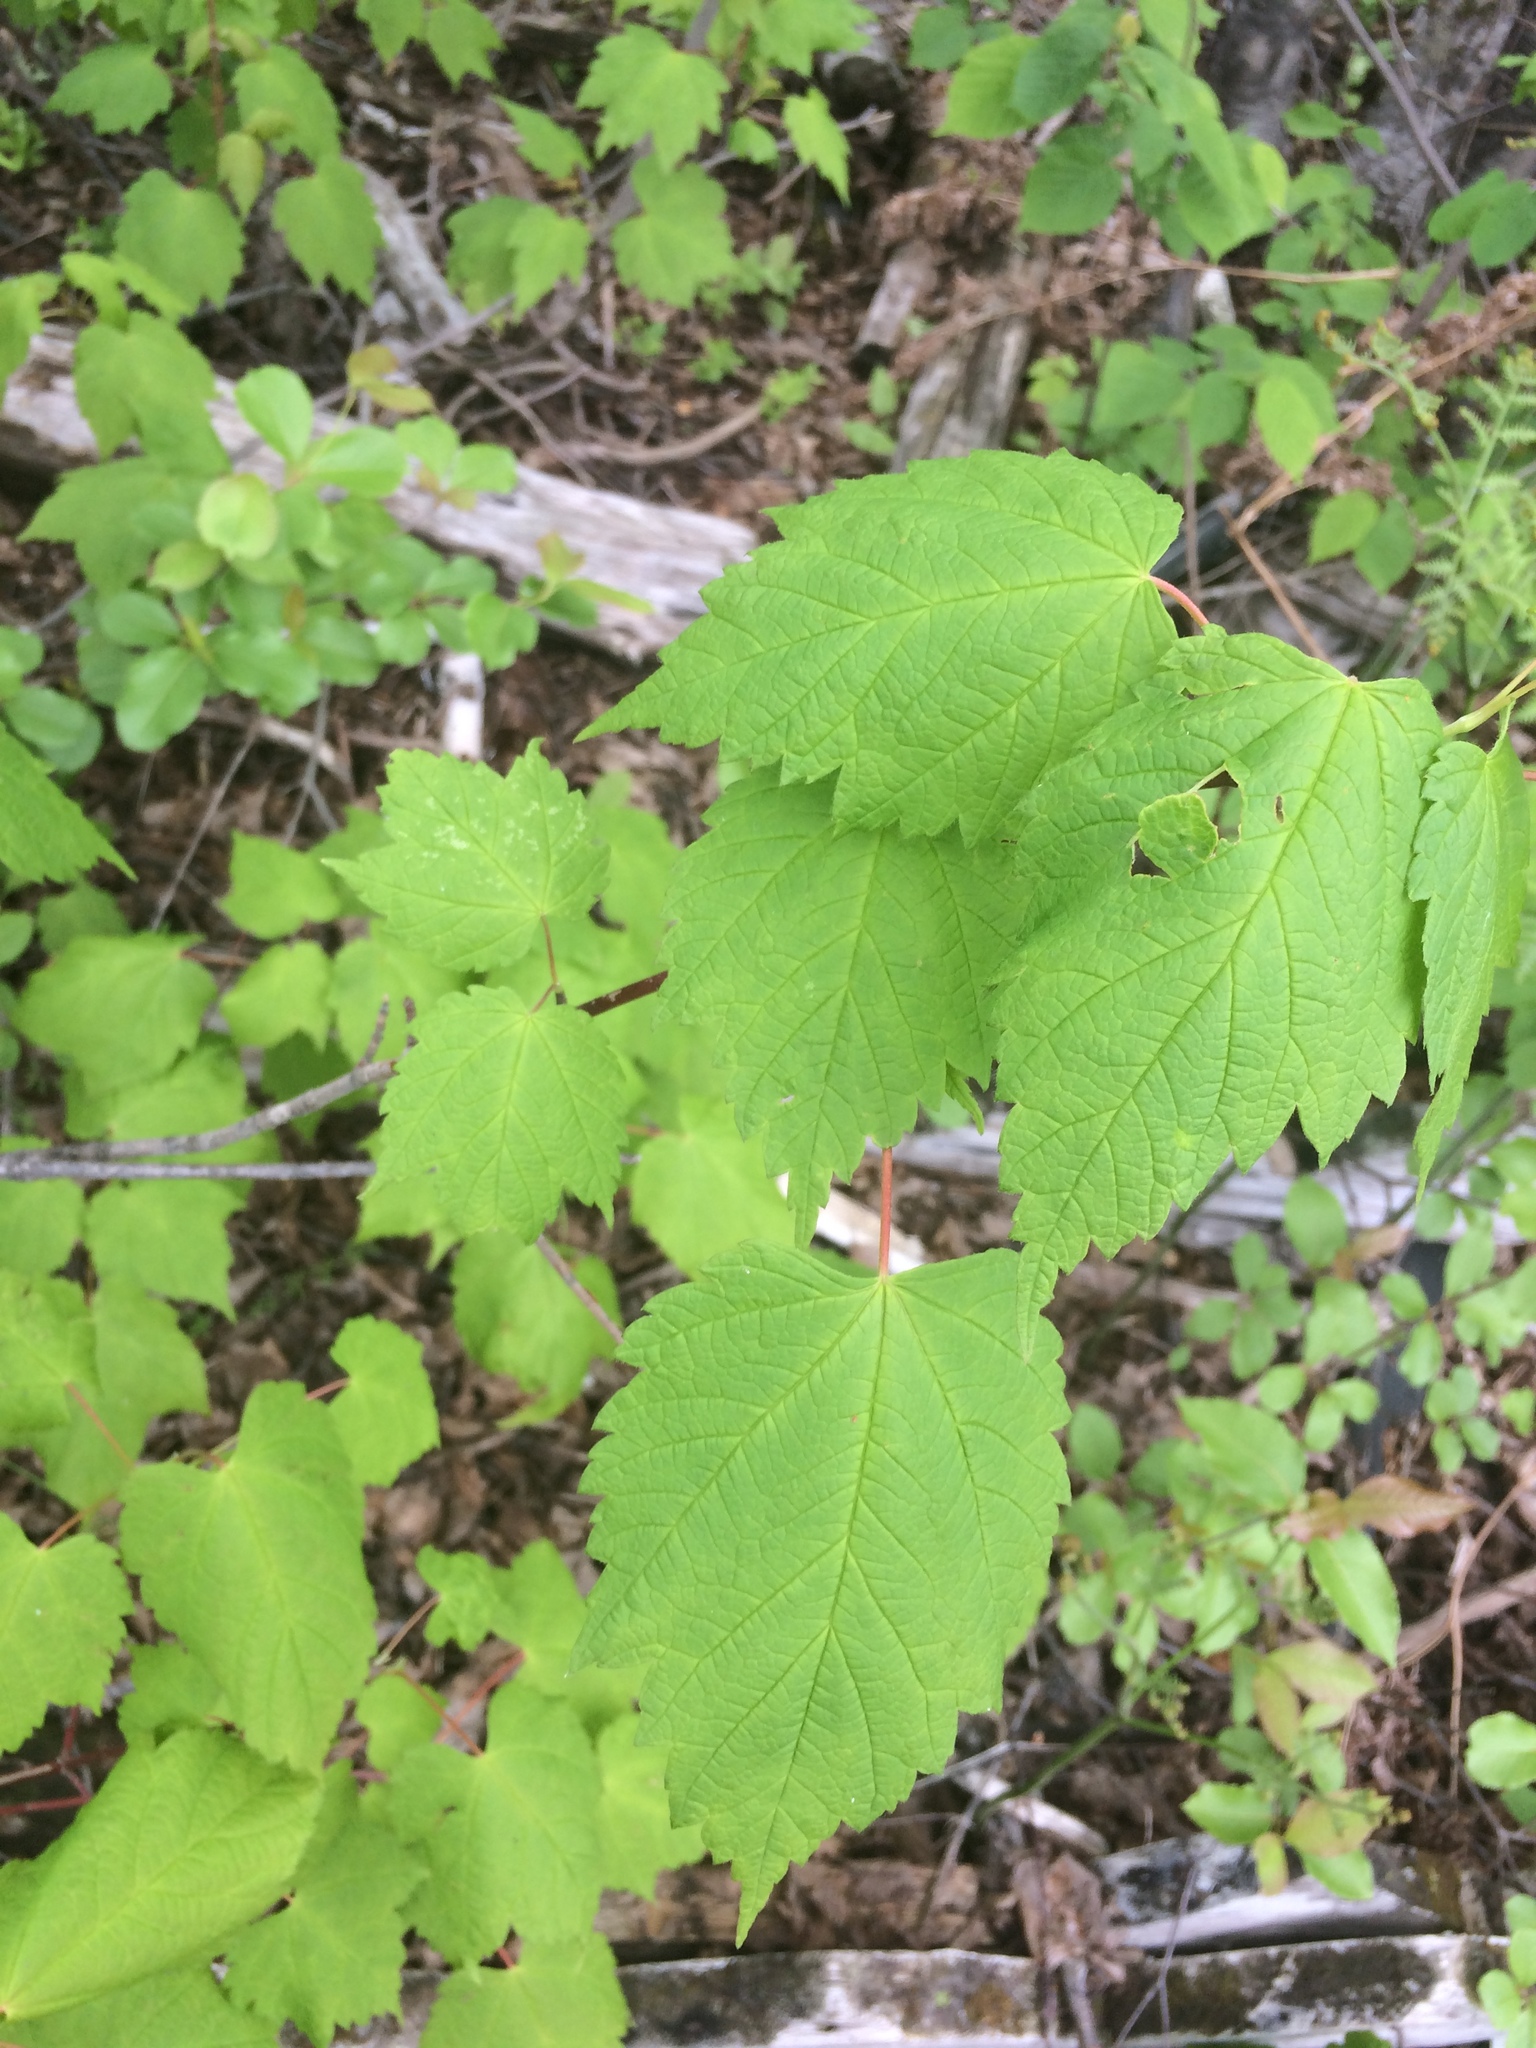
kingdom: Plantae
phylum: Tracheophyta
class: Magnoliopsida
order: Sapindales
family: Sapindaceae
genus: Acer
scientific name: Acer spicatum
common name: Mountain maple
